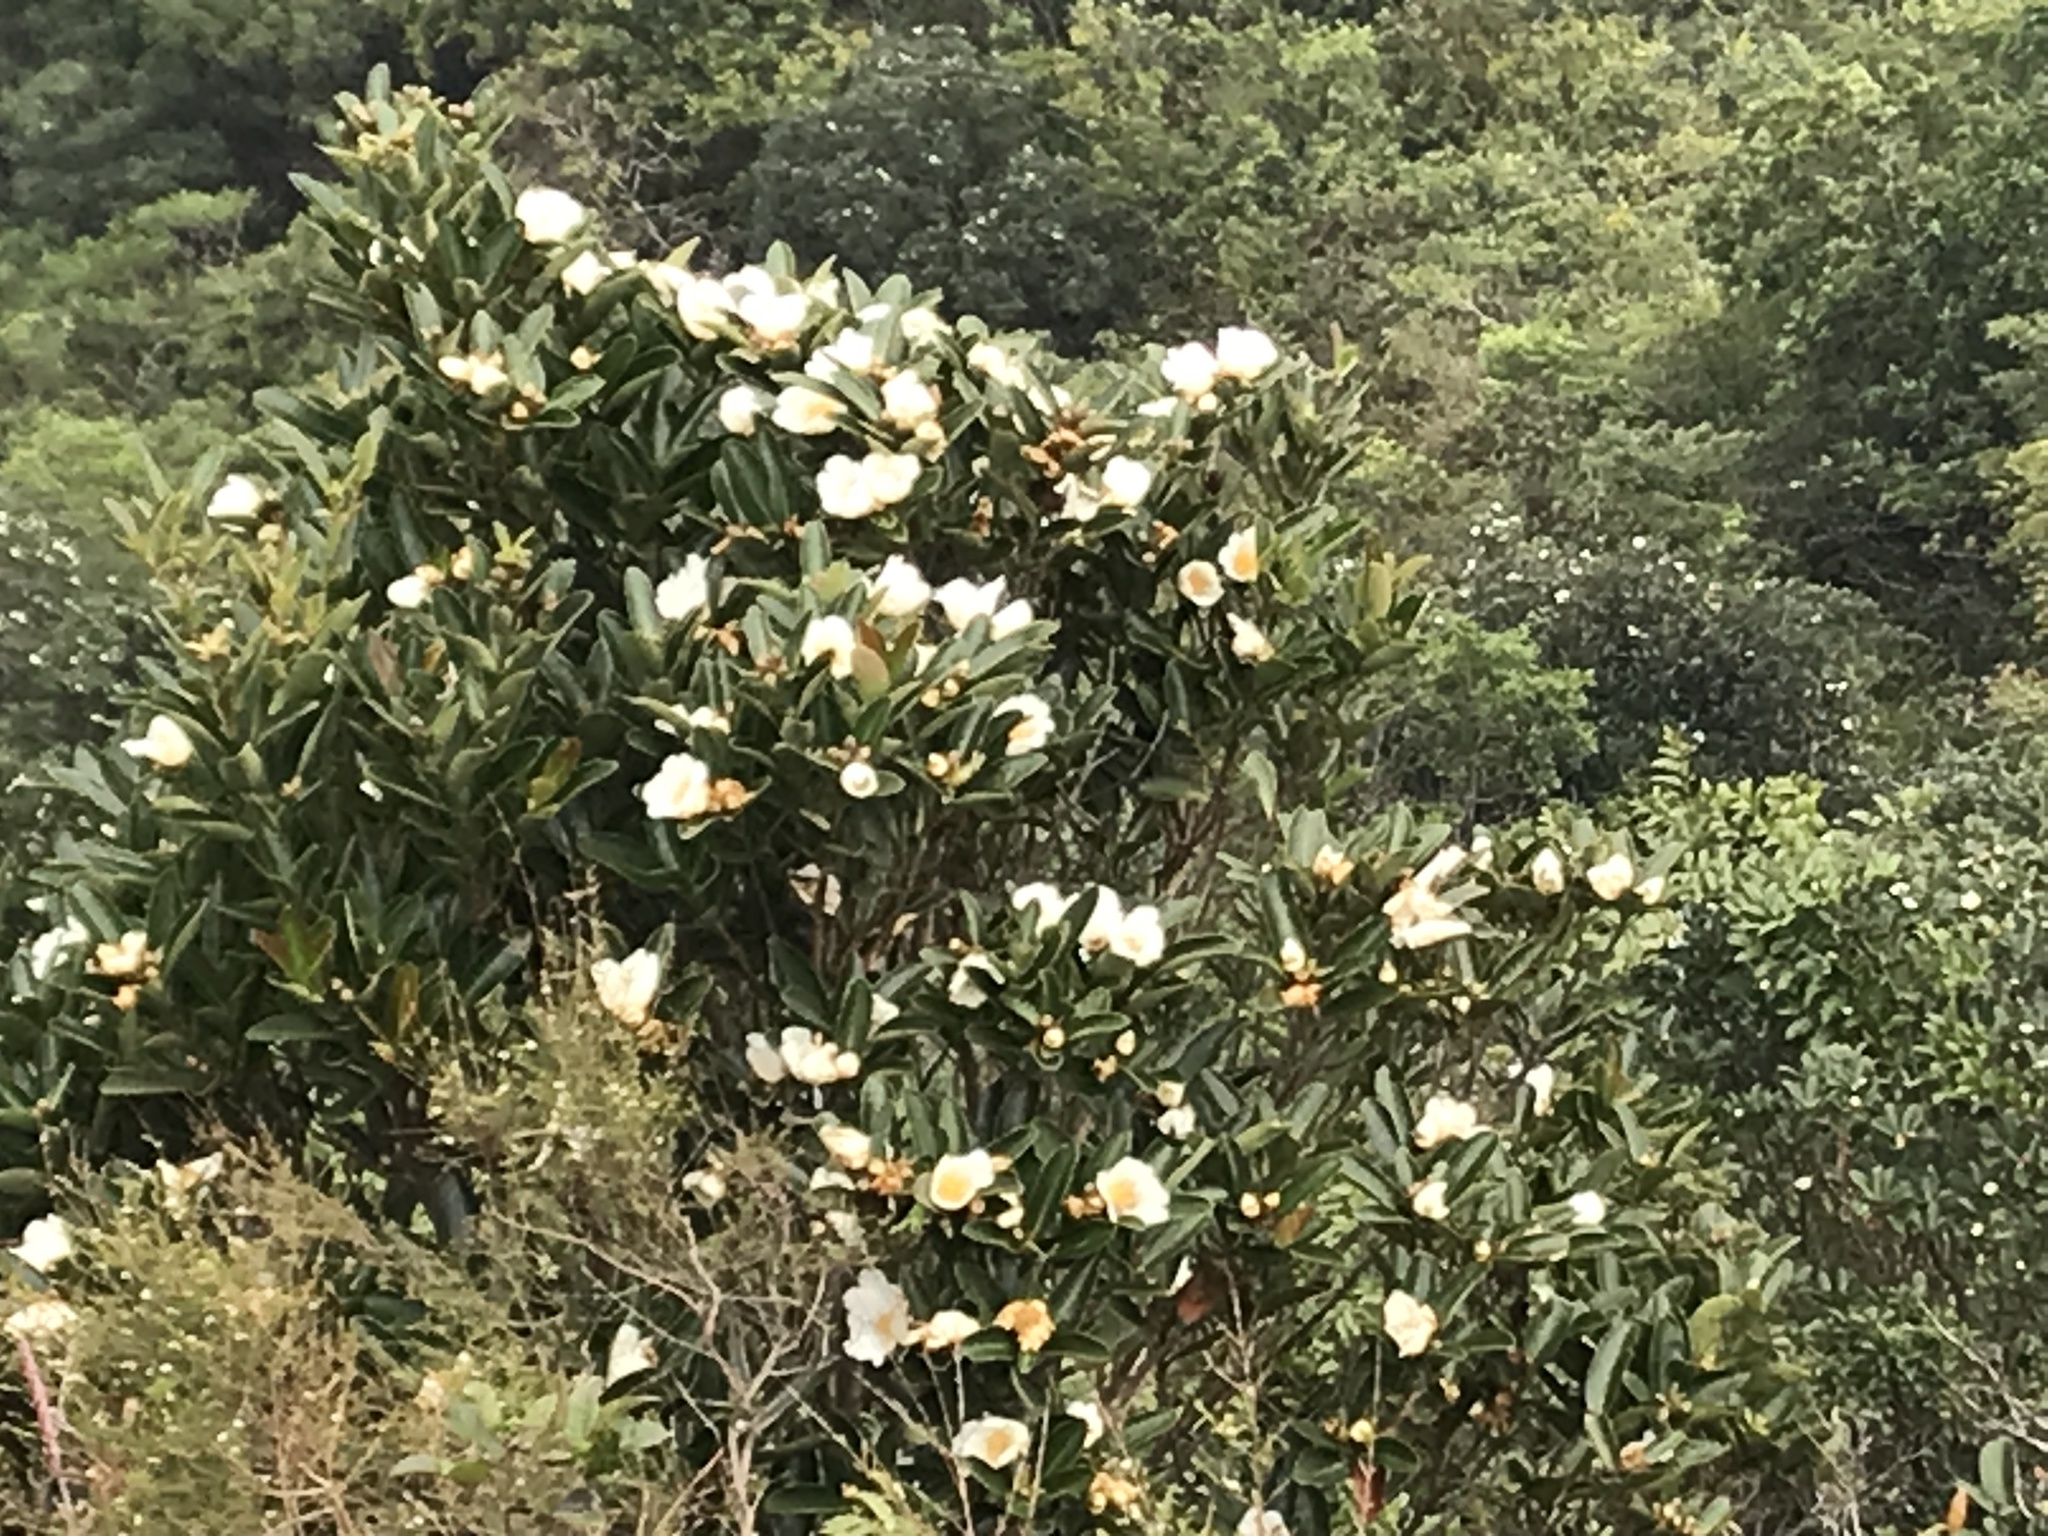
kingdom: Plantae
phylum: Tracheophyta
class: Magnoliopsida
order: Ericales
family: Theaceae
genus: Polyspora
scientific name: Polyspora axillaris
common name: Fried egg tree
